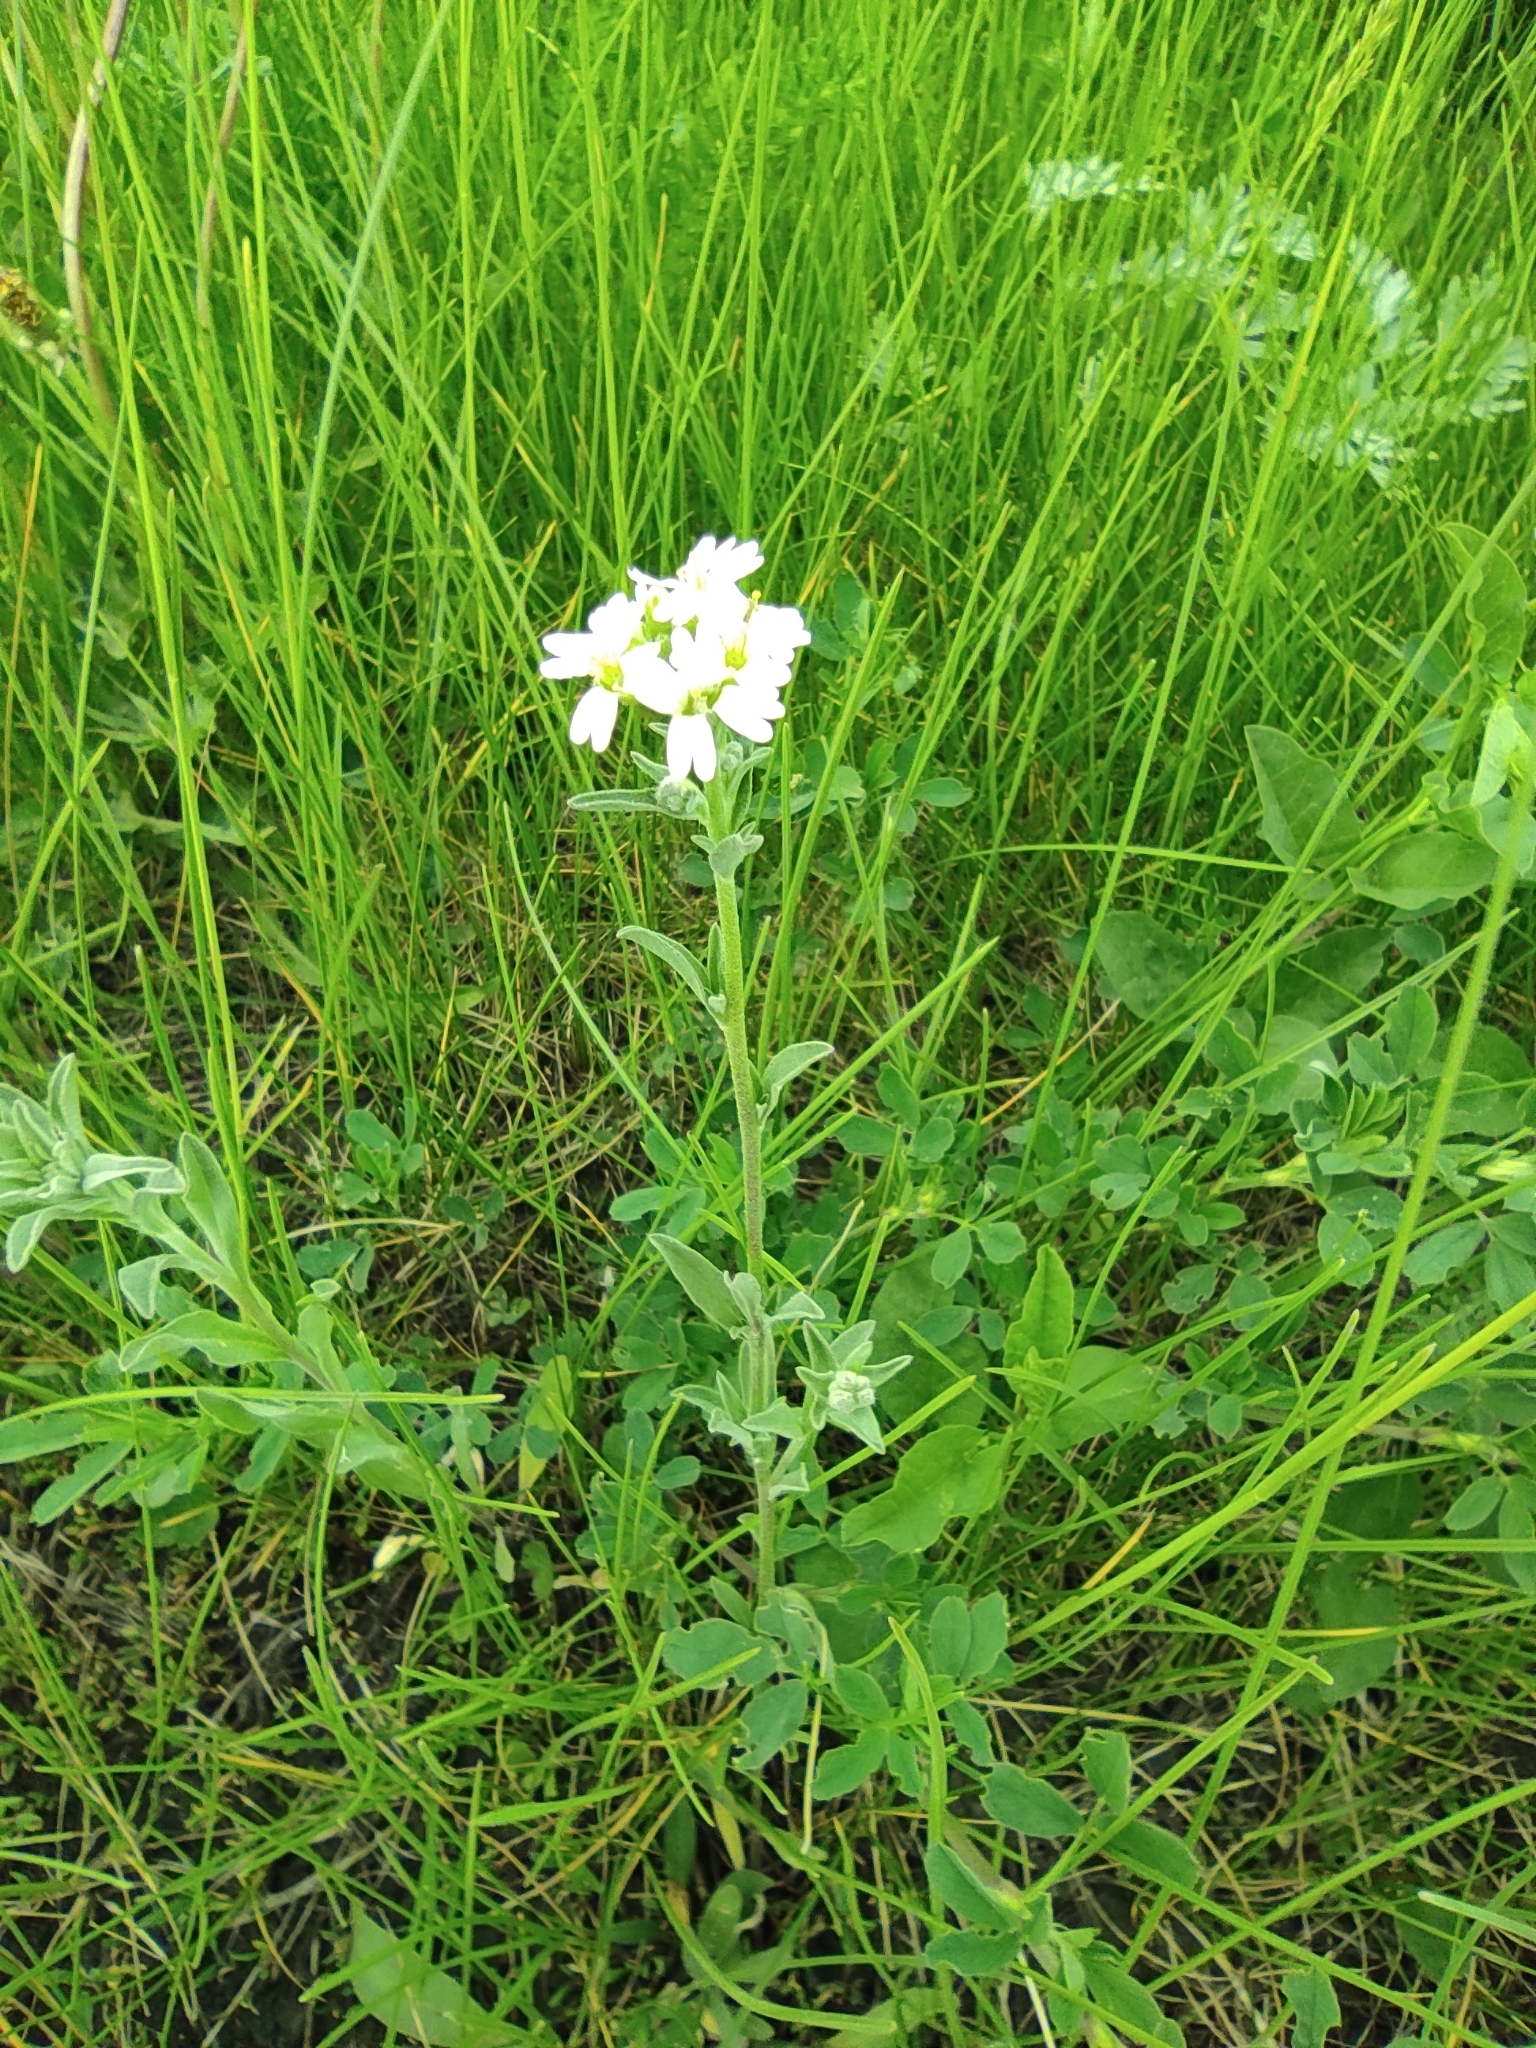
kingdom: Plantae
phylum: Tracheophyta
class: Magnoliopsida
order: Brassicales
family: Brassicaceae
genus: Berteroa
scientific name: Berteroa incana
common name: Hoary alison
